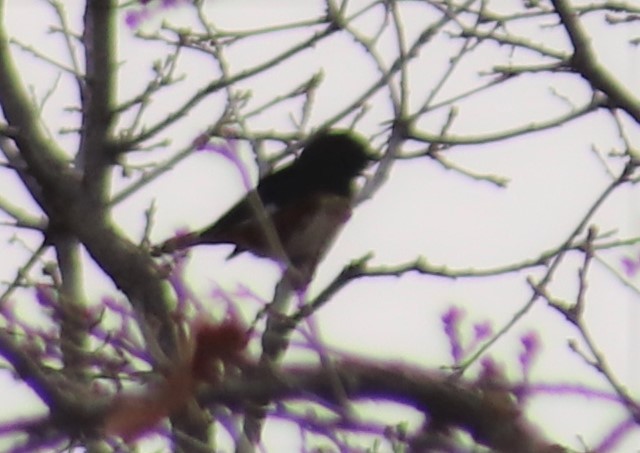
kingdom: Animalia
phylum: Chordata
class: Aves
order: Passeriformes
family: Passerellidae
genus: Pipilo
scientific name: Pipilo erythrophthalmus
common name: Eastern towhee
